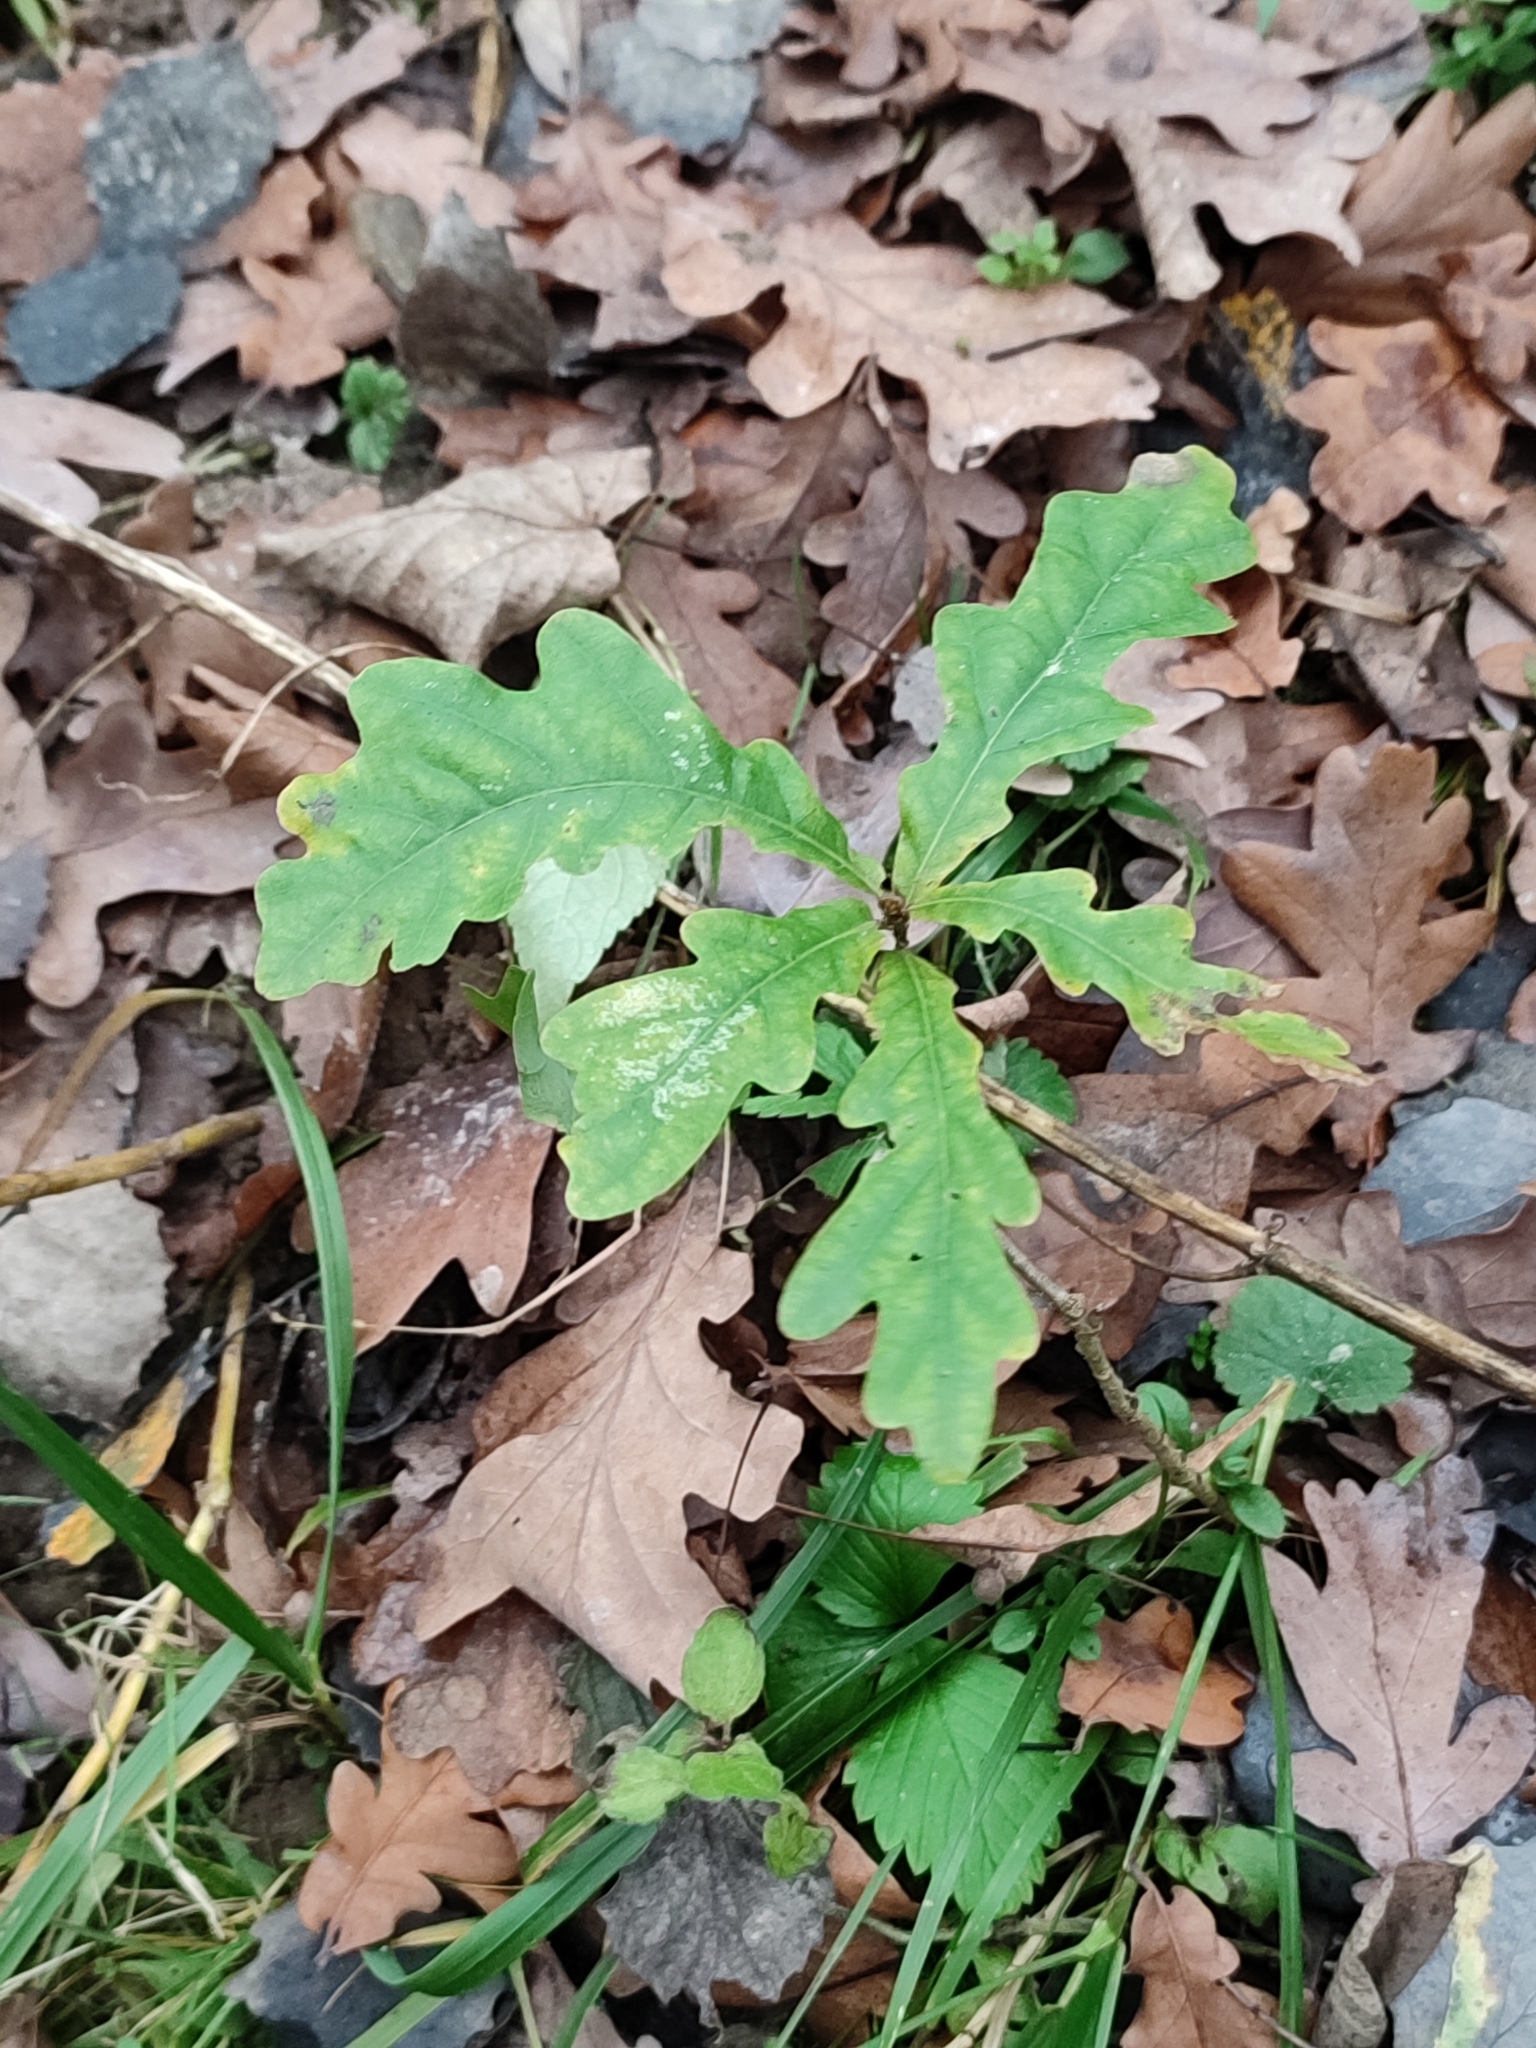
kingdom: Plantae
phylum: Tracheophyta
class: Magnoliopsida
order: Fagales
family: Fagaceae
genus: Quercus
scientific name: Quercus robur
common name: Pedunculate oak
